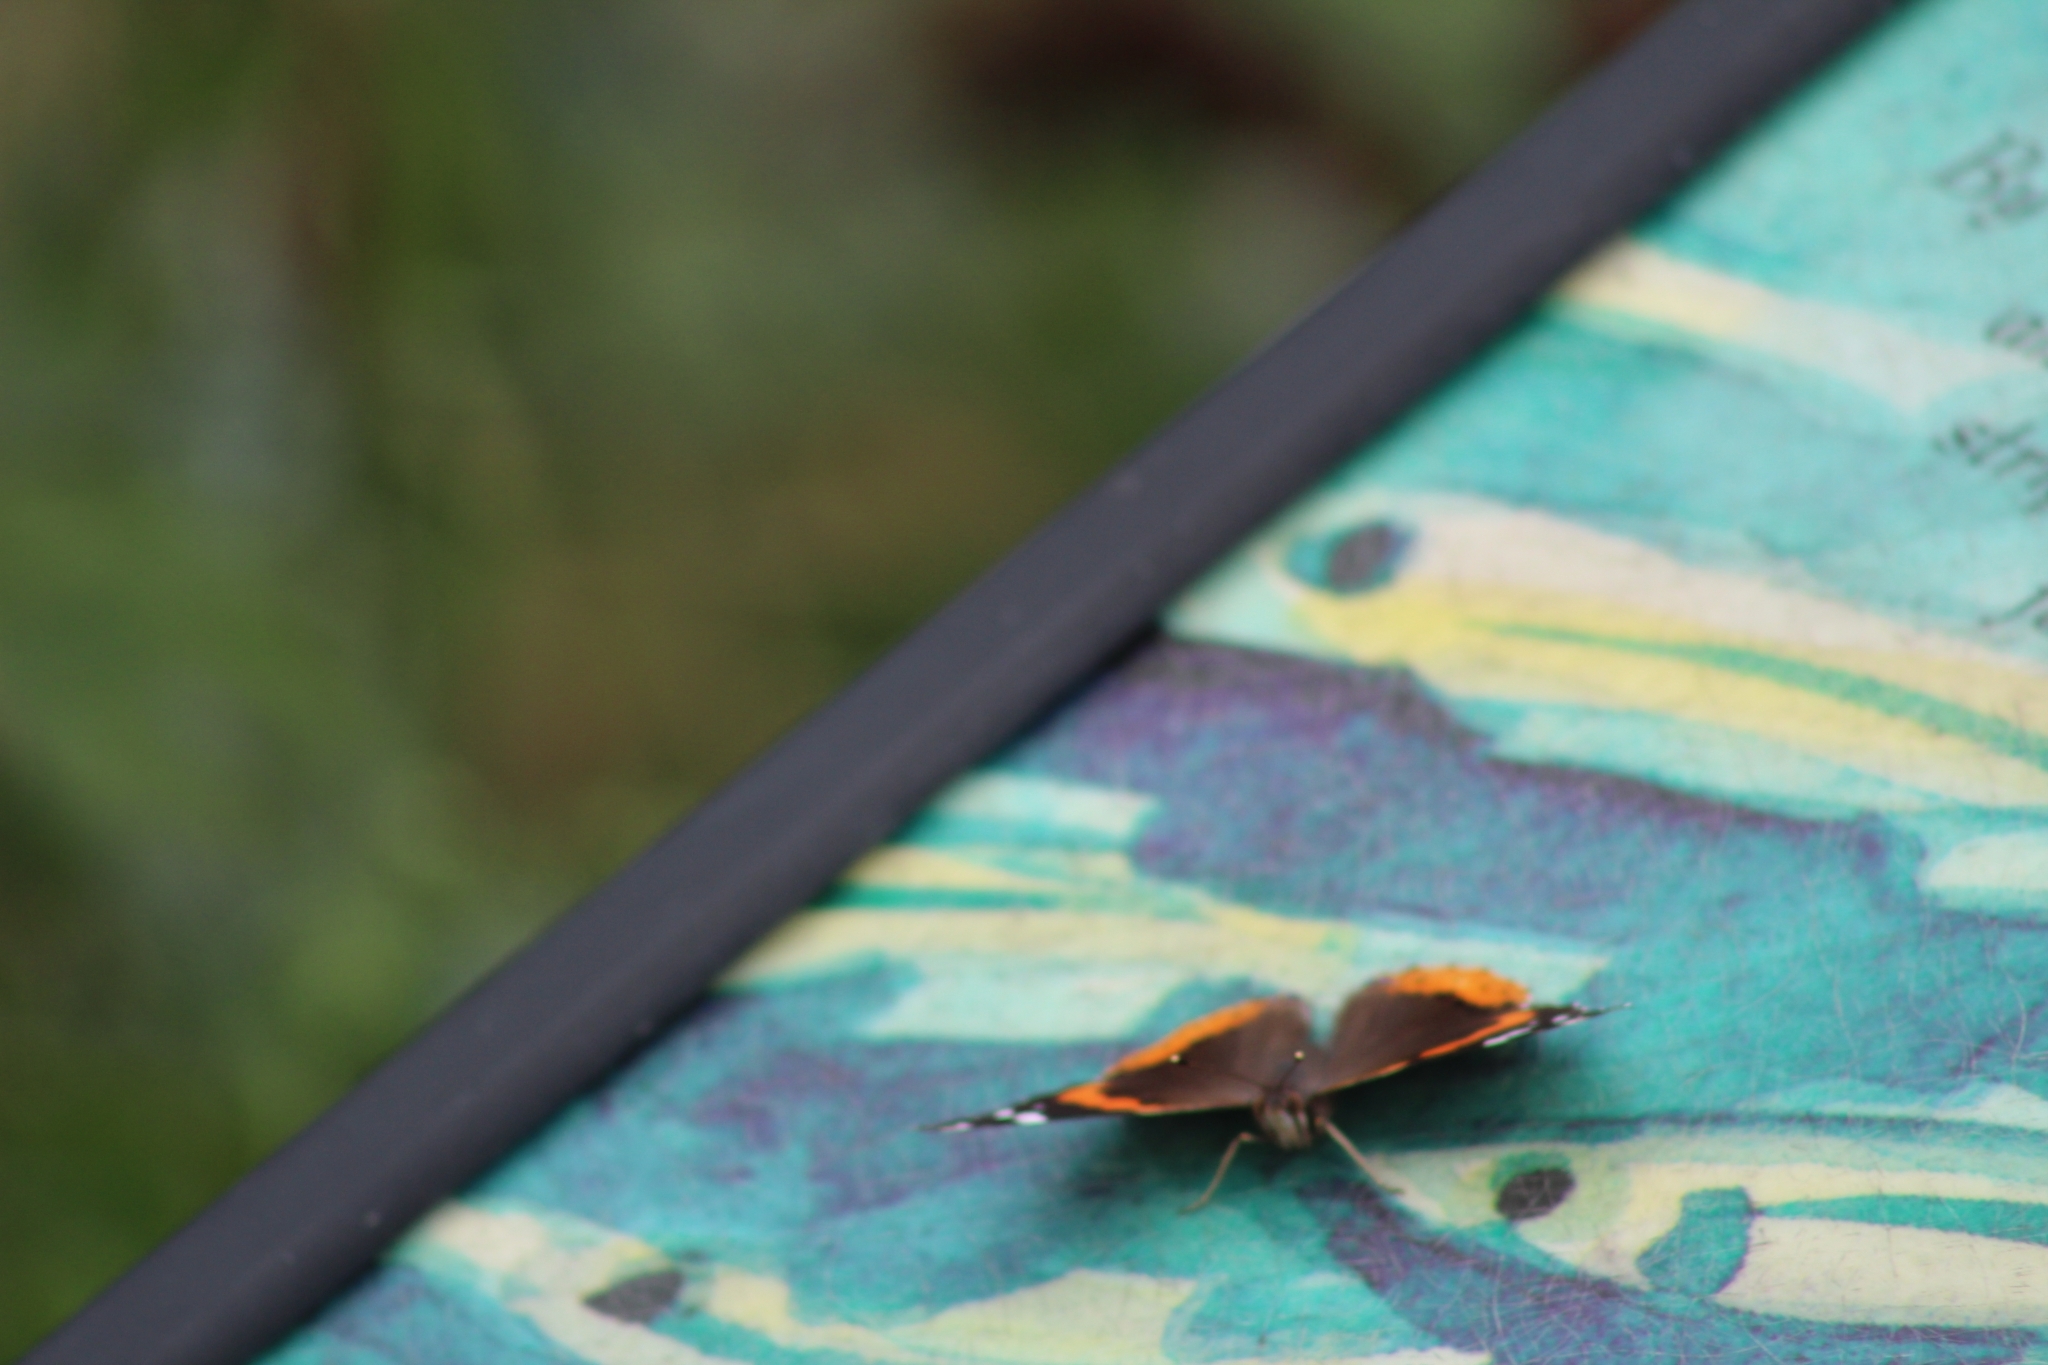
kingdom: Animalia
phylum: Arthropoda
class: Insecta
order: Lepidoptera
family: Nymphalidae
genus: Vanessa
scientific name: Vanessa atalanta
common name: Red admiral
